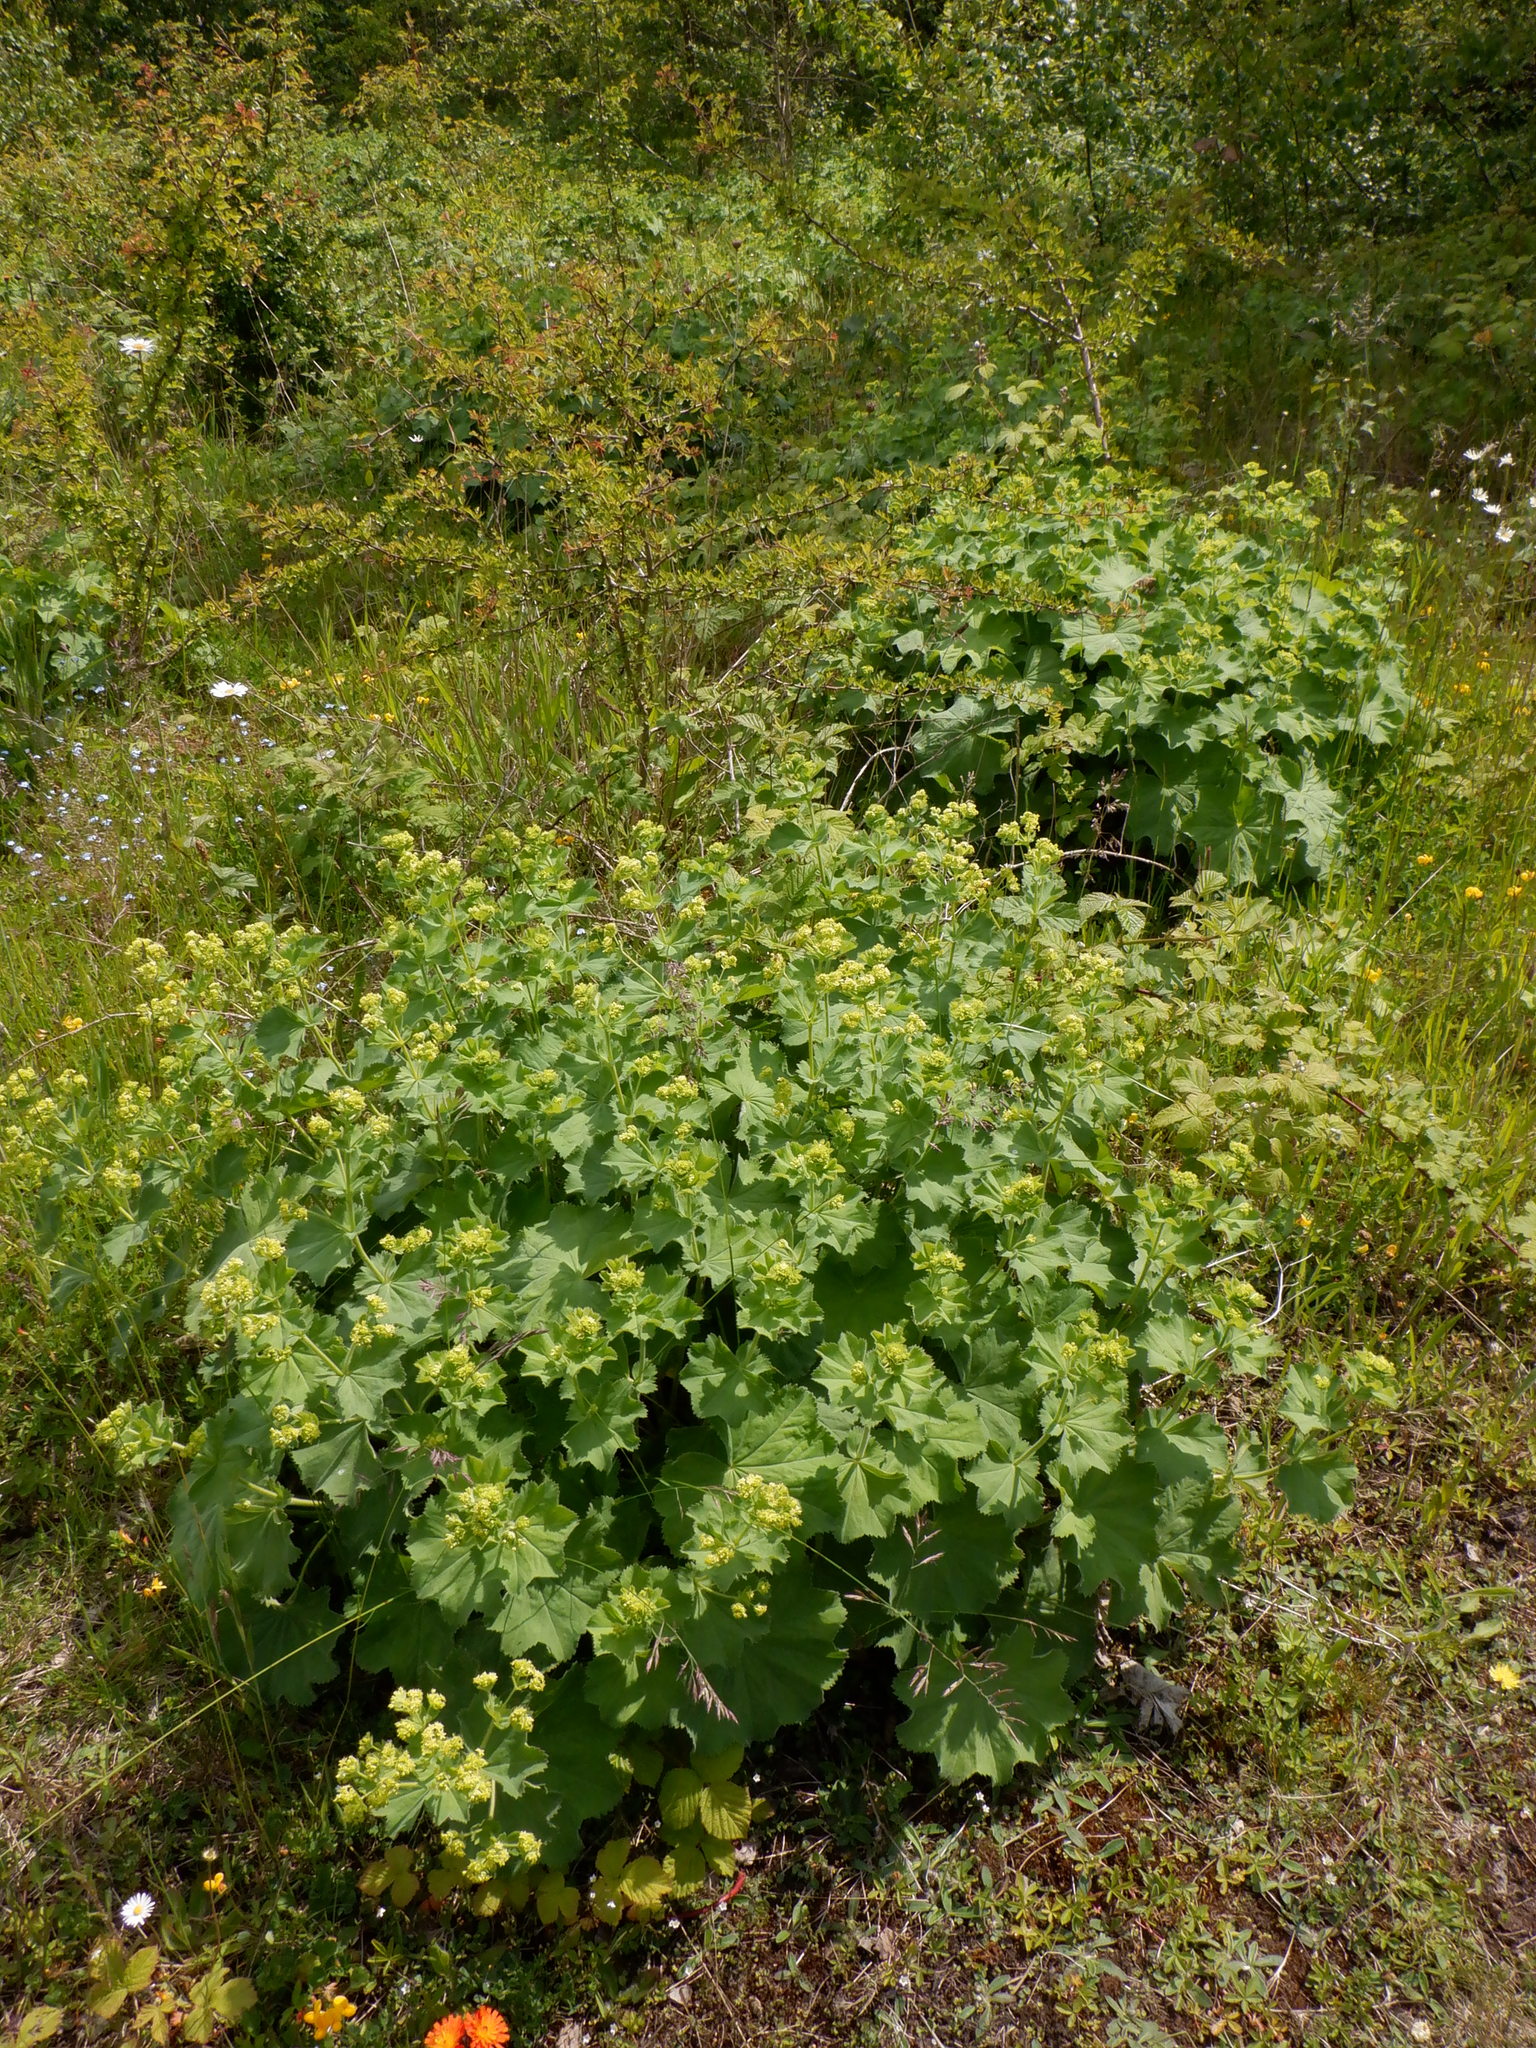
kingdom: Plantae
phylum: Tracheophyta
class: Magnoliopsida
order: Rosales
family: Rosaceae
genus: Alchemilla
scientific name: Alchemilla mollis
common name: Lady's-mantle
